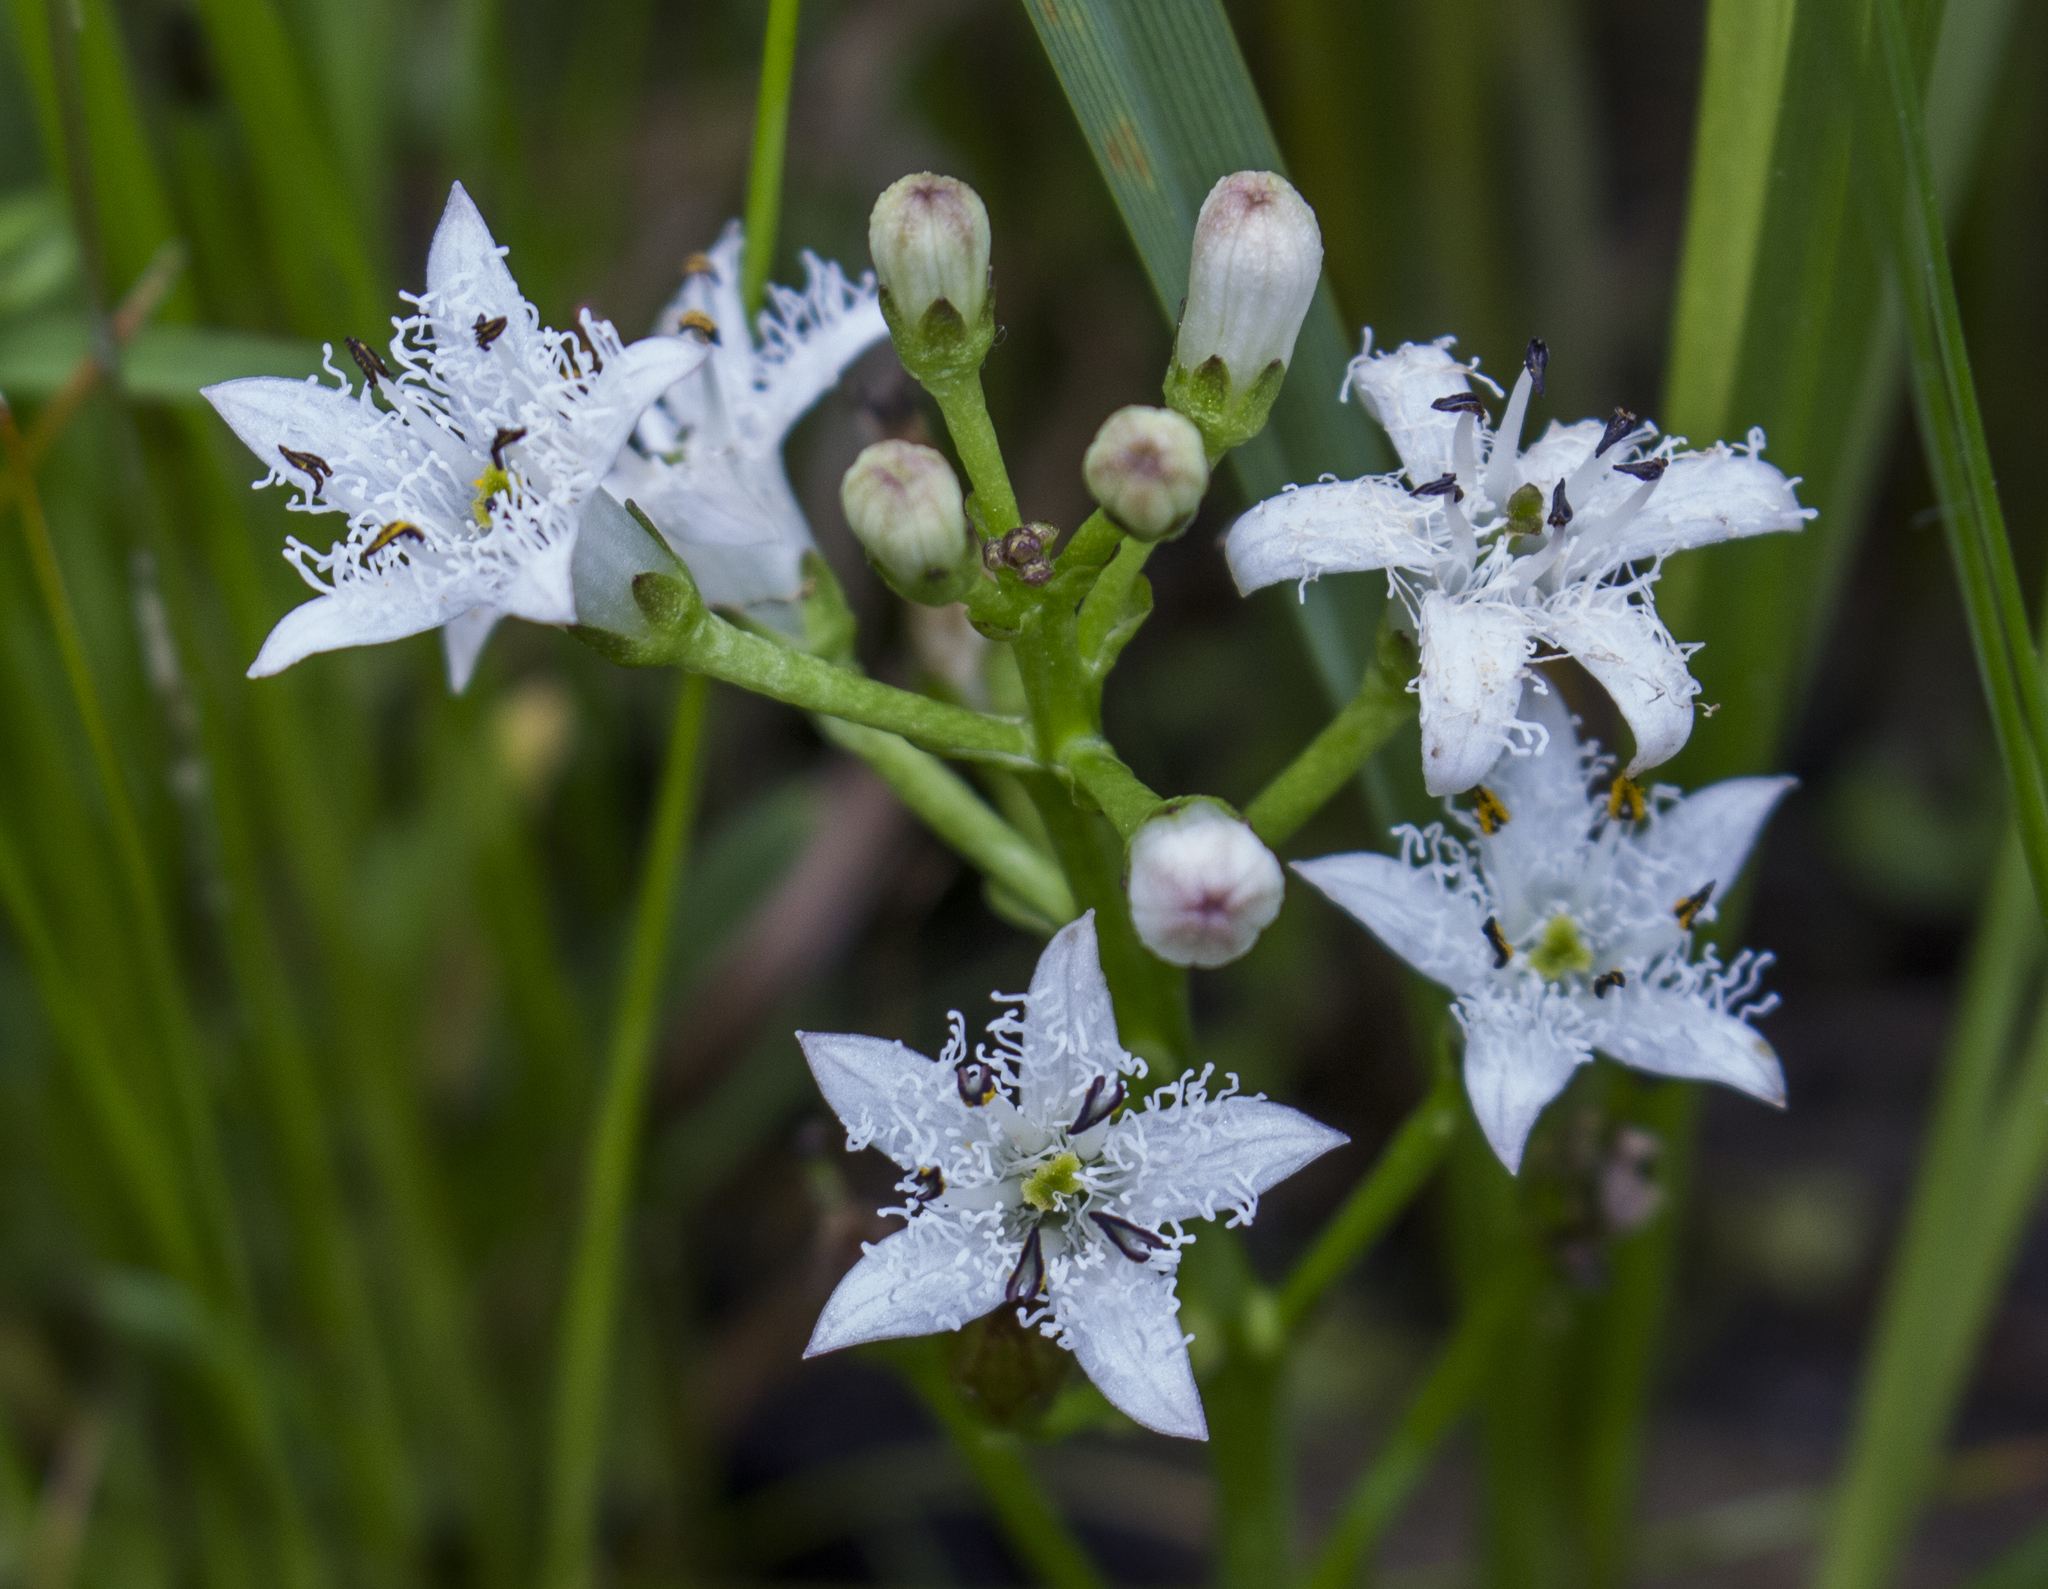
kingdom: Plantae
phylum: Tracheophyta
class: Magnoliopsida
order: Asterales
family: Menyanthaceae
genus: Menyanthes
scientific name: Menyanthes trifoliata
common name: Bogbean
